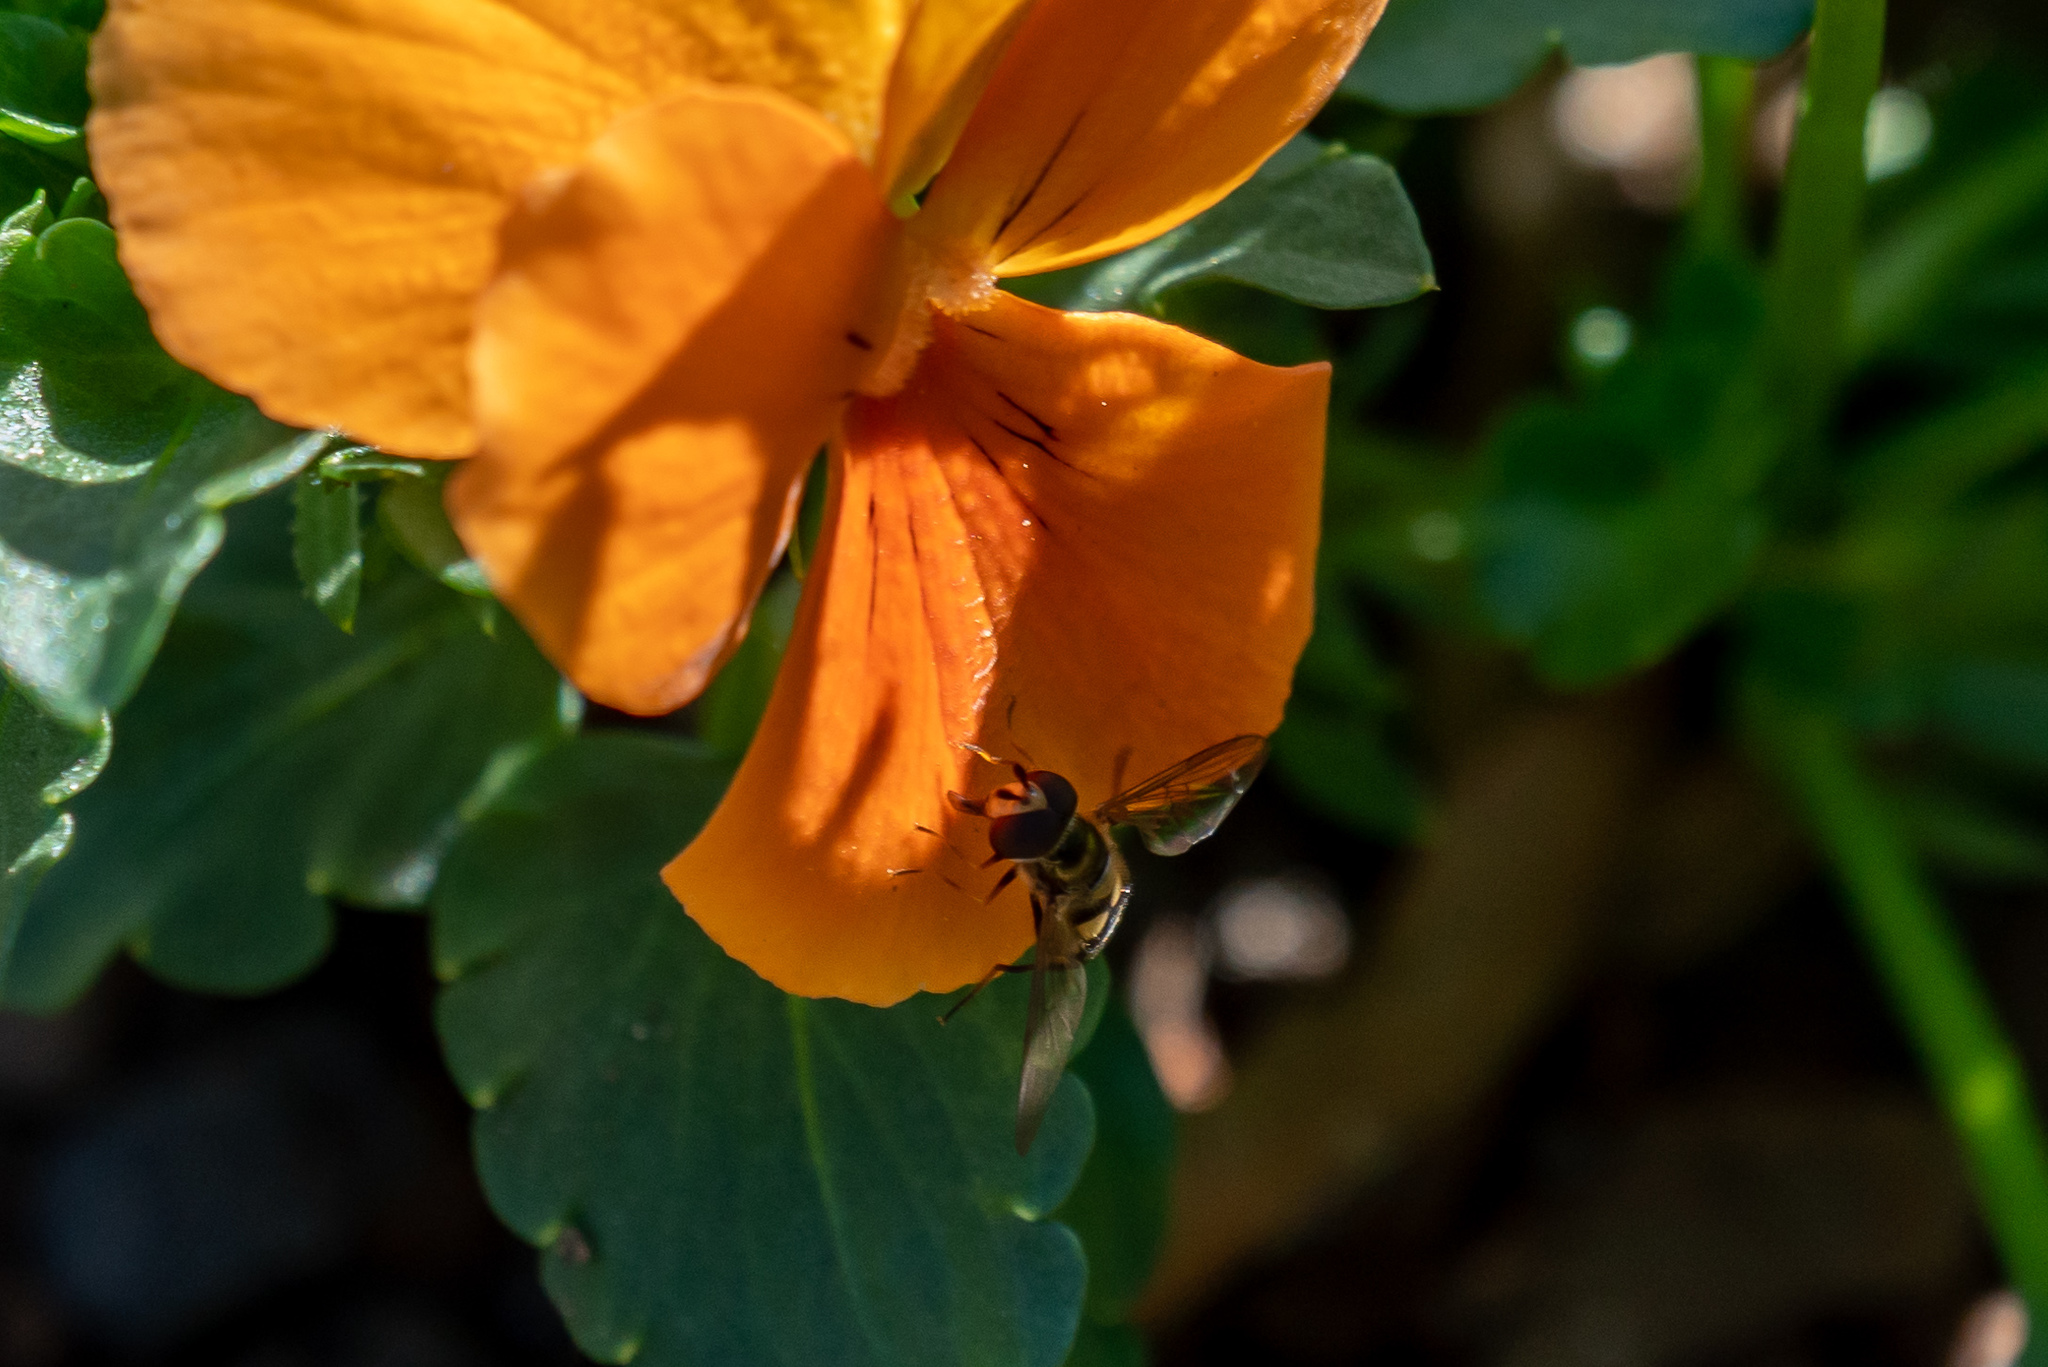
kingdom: Animalia
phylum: Arthropoda
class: Insecta
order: Diptera
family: Syrphidae
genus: Eupeodes
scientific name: Eupeodes
